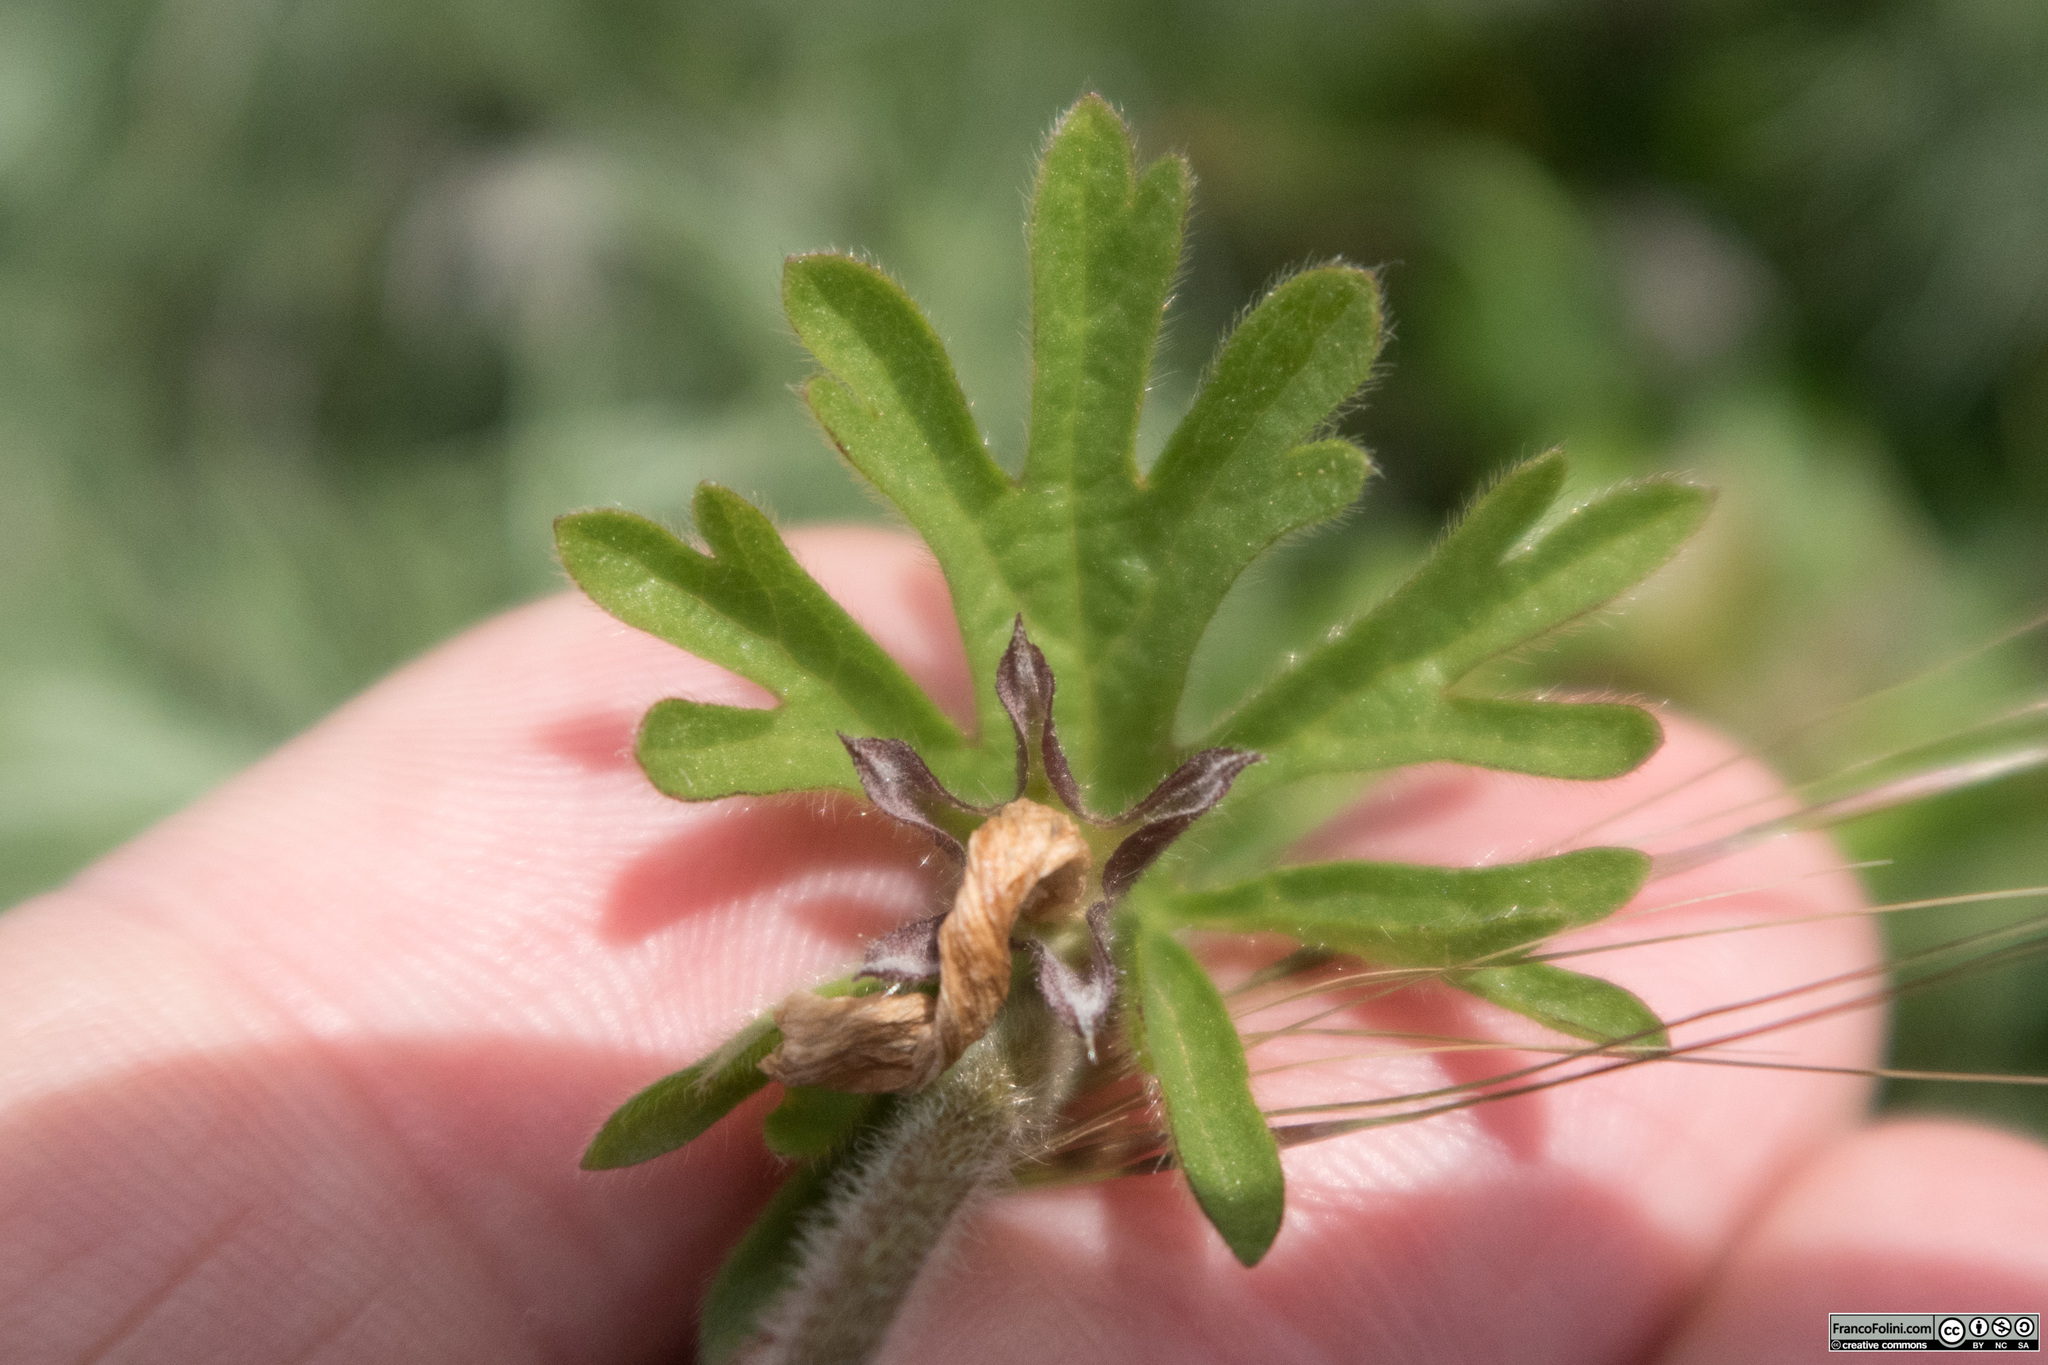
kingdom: Plantae
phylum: Tracheophyta
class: Magnoliopsida
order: Malvales
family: Malvaceae
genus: Sidalcea
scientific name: Sidalcea malviflora
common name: Greek mallow
